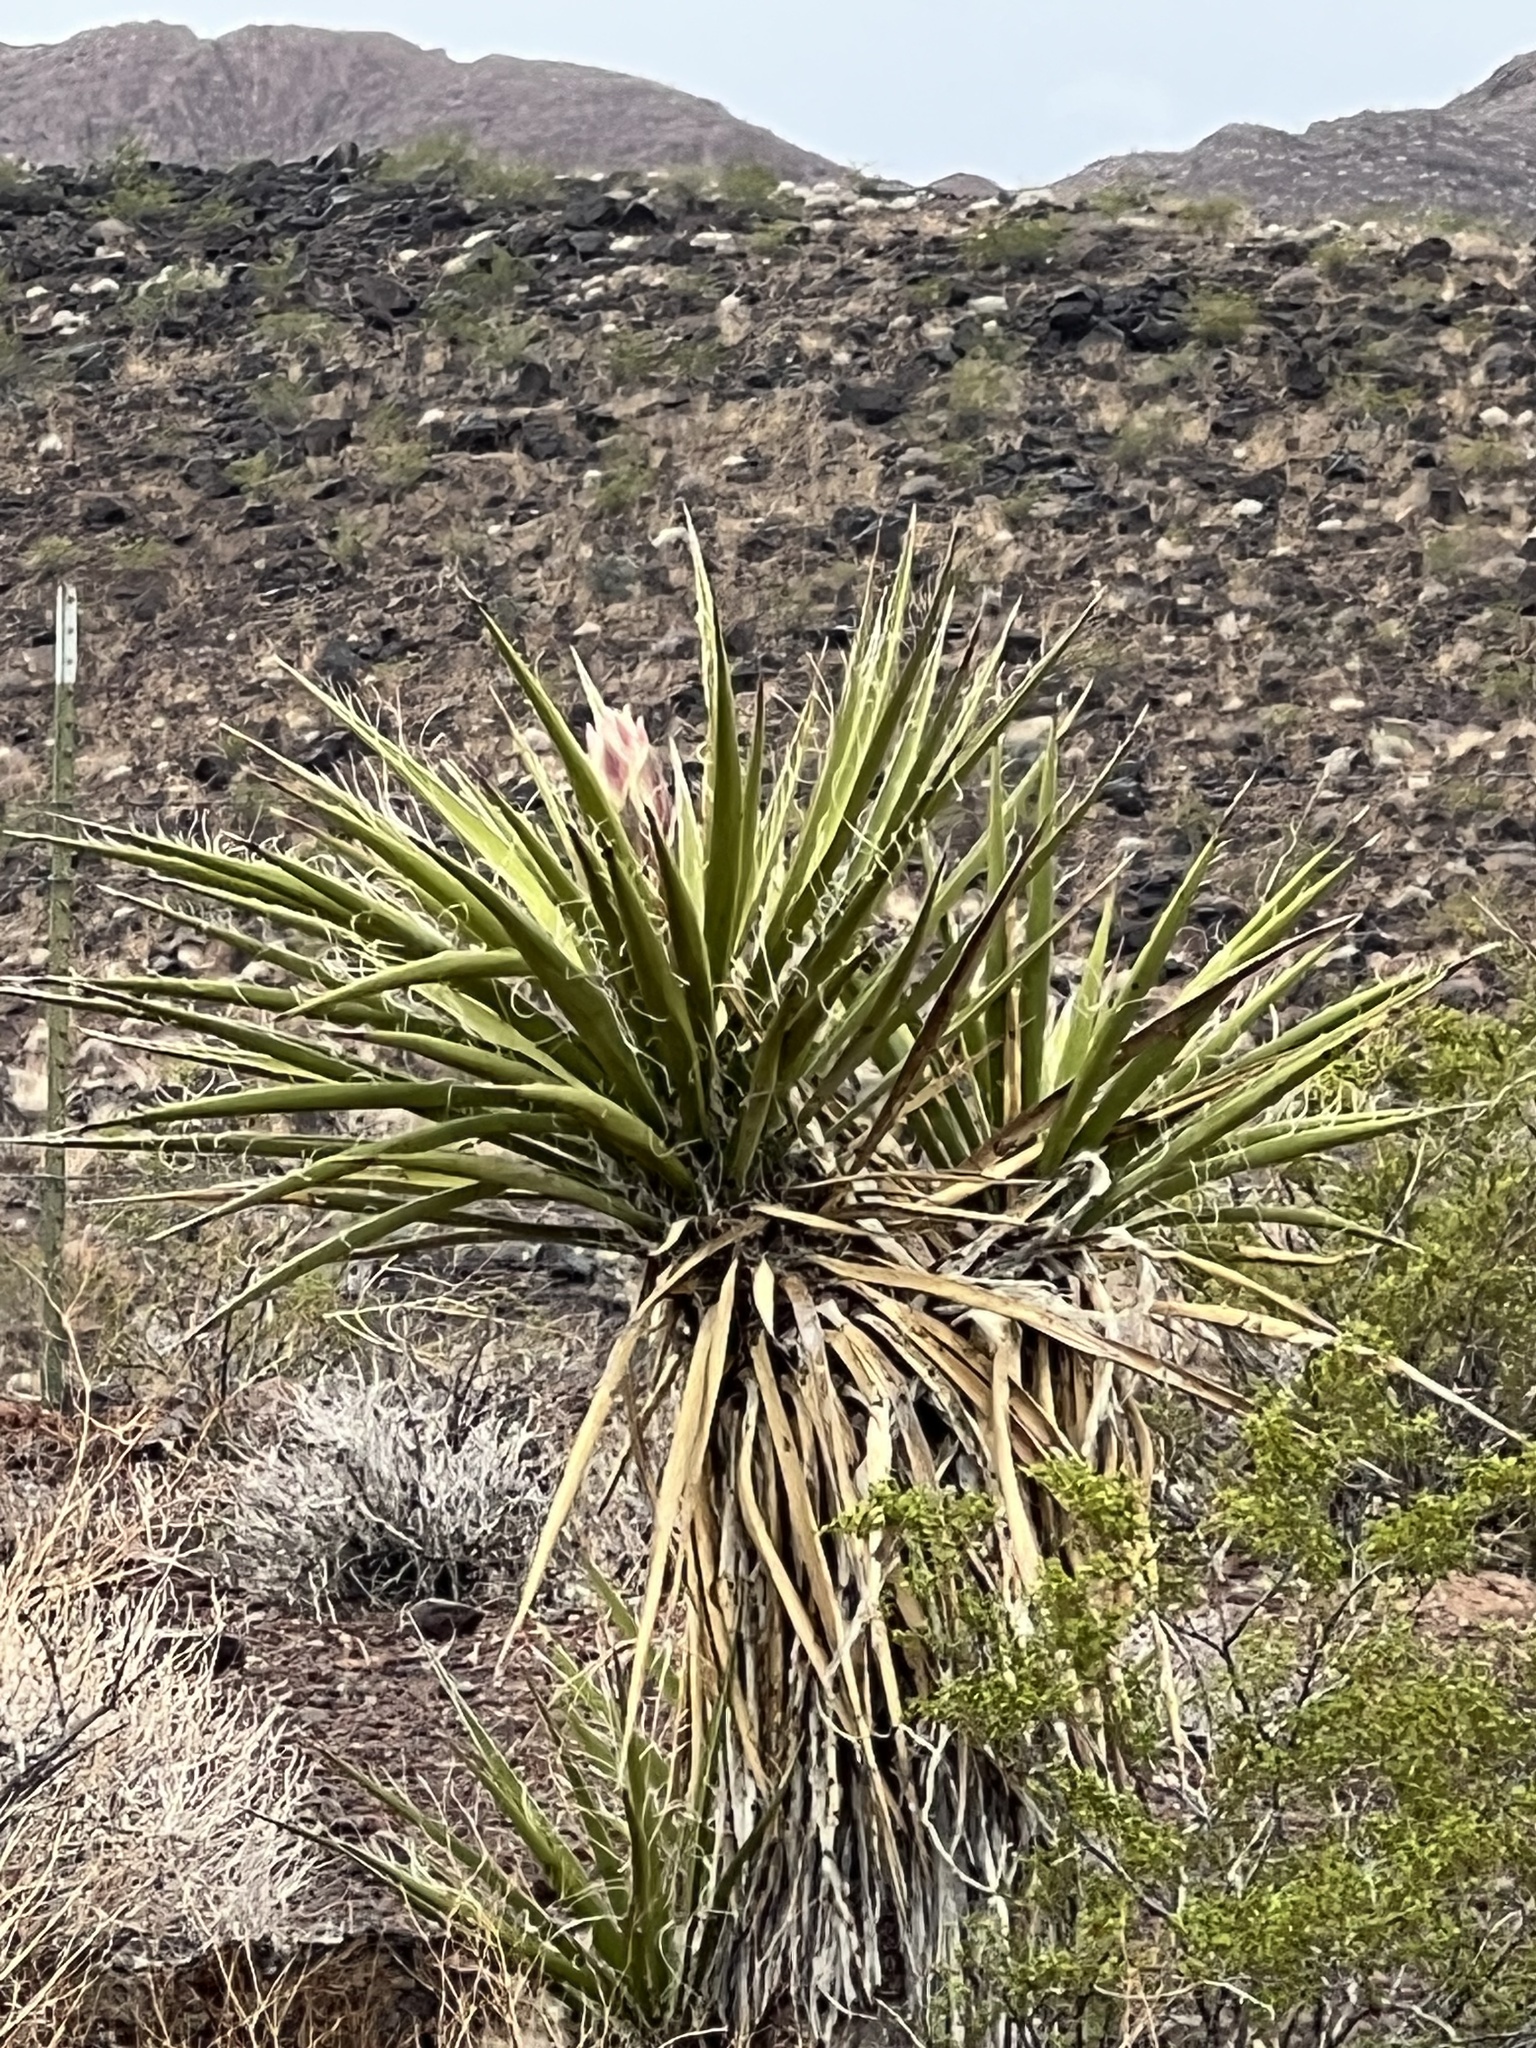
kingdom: Plantae
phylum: Tracheophyta
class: Liliopsida
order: Asparagales
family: Asparagaceae
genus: Yucca
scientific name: Yucca schidigera
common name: Mojave yucca
